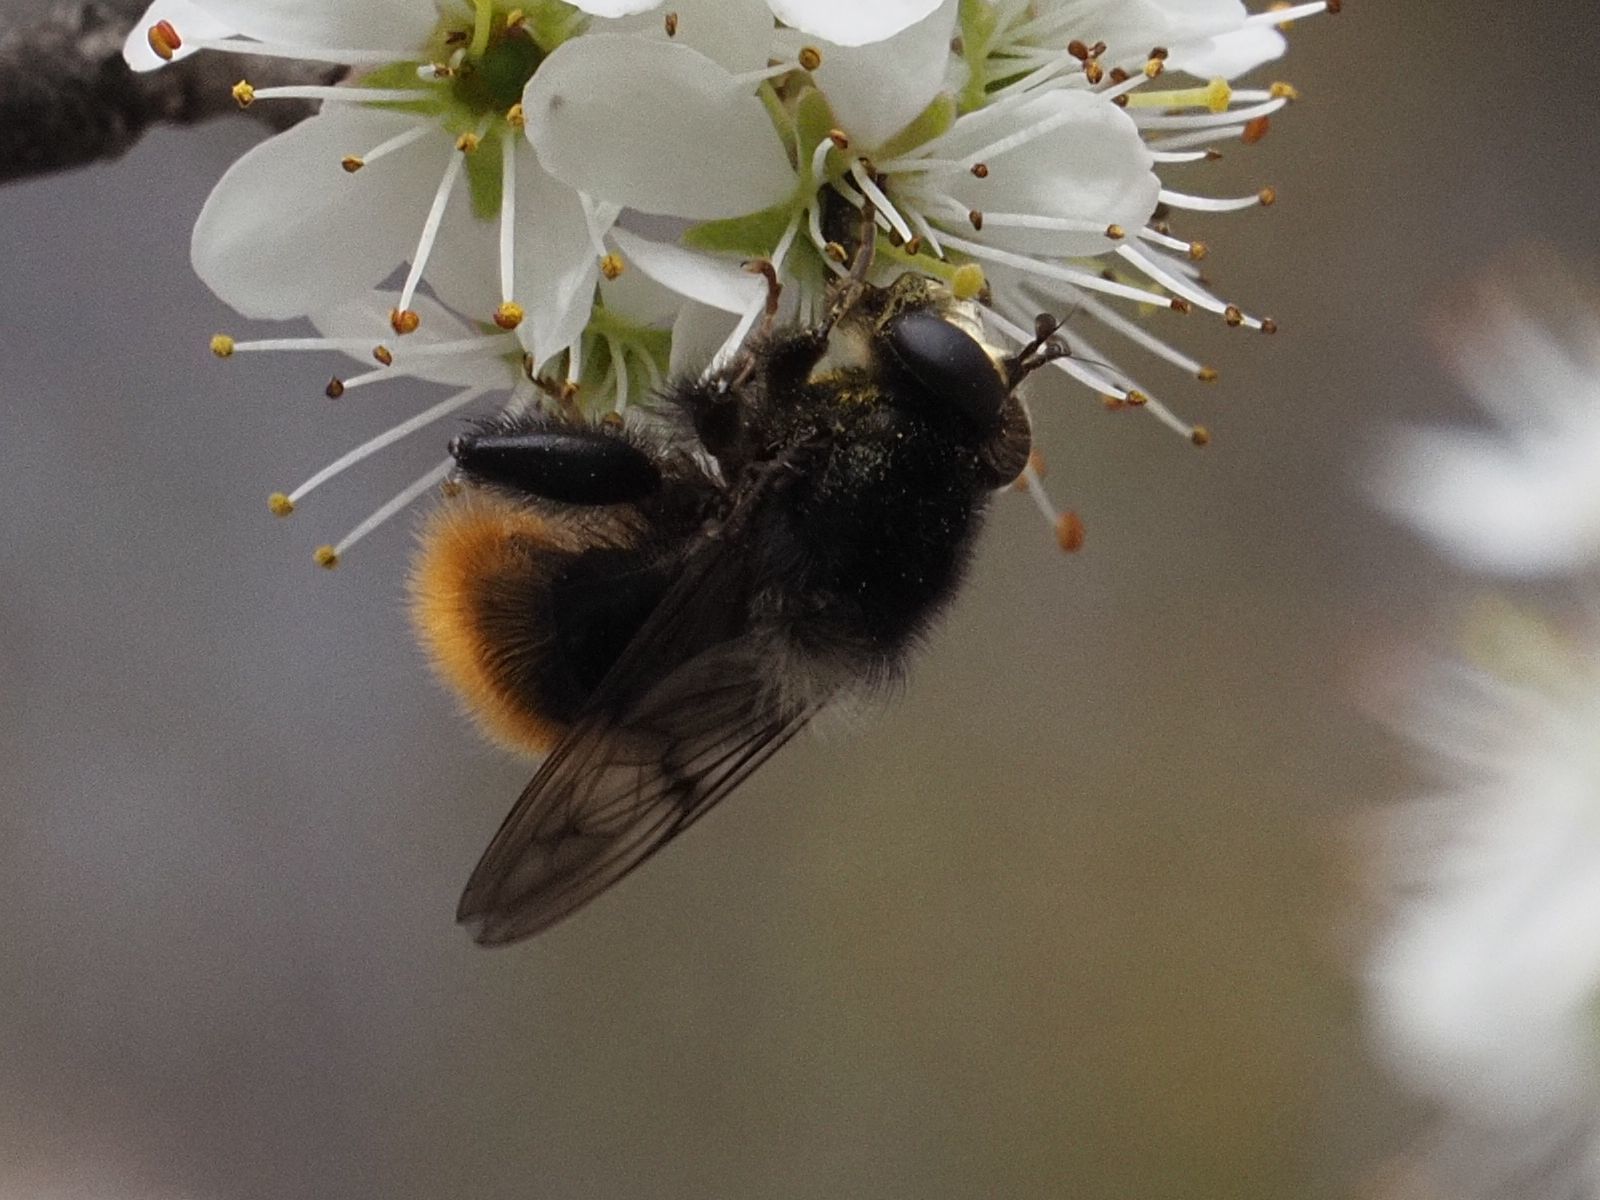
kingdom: Animalia
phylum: Arthropoda
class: Insecta
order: Diptera
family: Syrphidae
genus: Criorhina
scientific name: Criorhina ranunculi
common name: Large bear hoverfly
